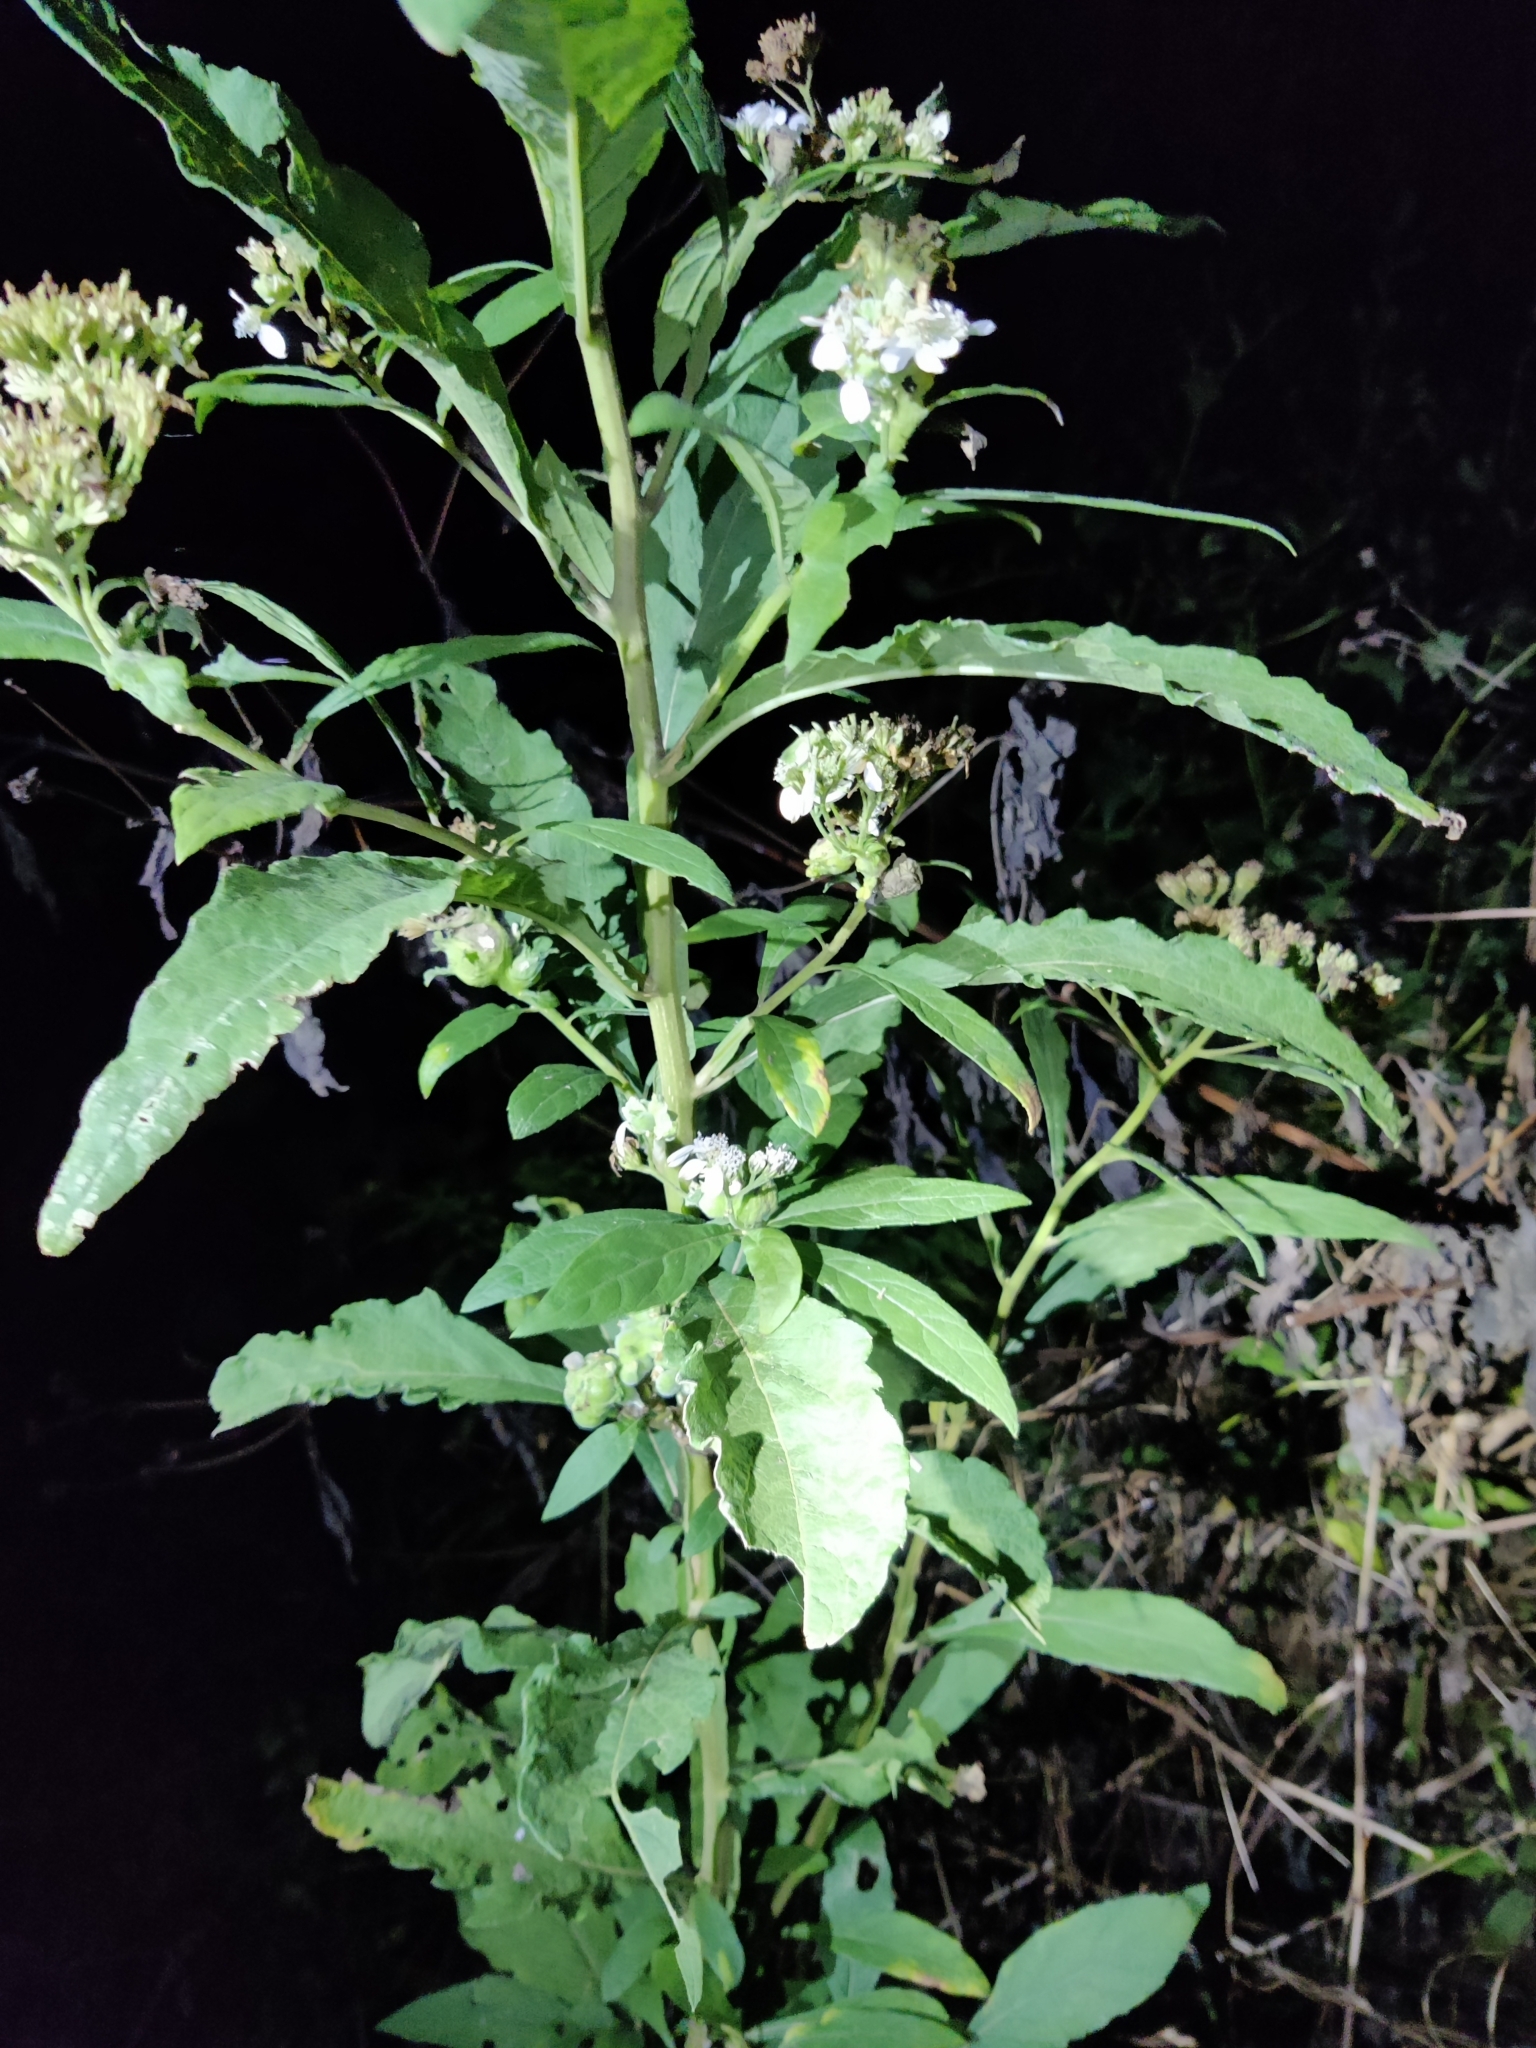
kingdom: Plantae
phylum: Tracheophyta
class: Magnoliopsida
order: Asterales
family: Asteraceae
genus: Verbesina
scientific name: Verbesina virginica
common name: Frostweed
